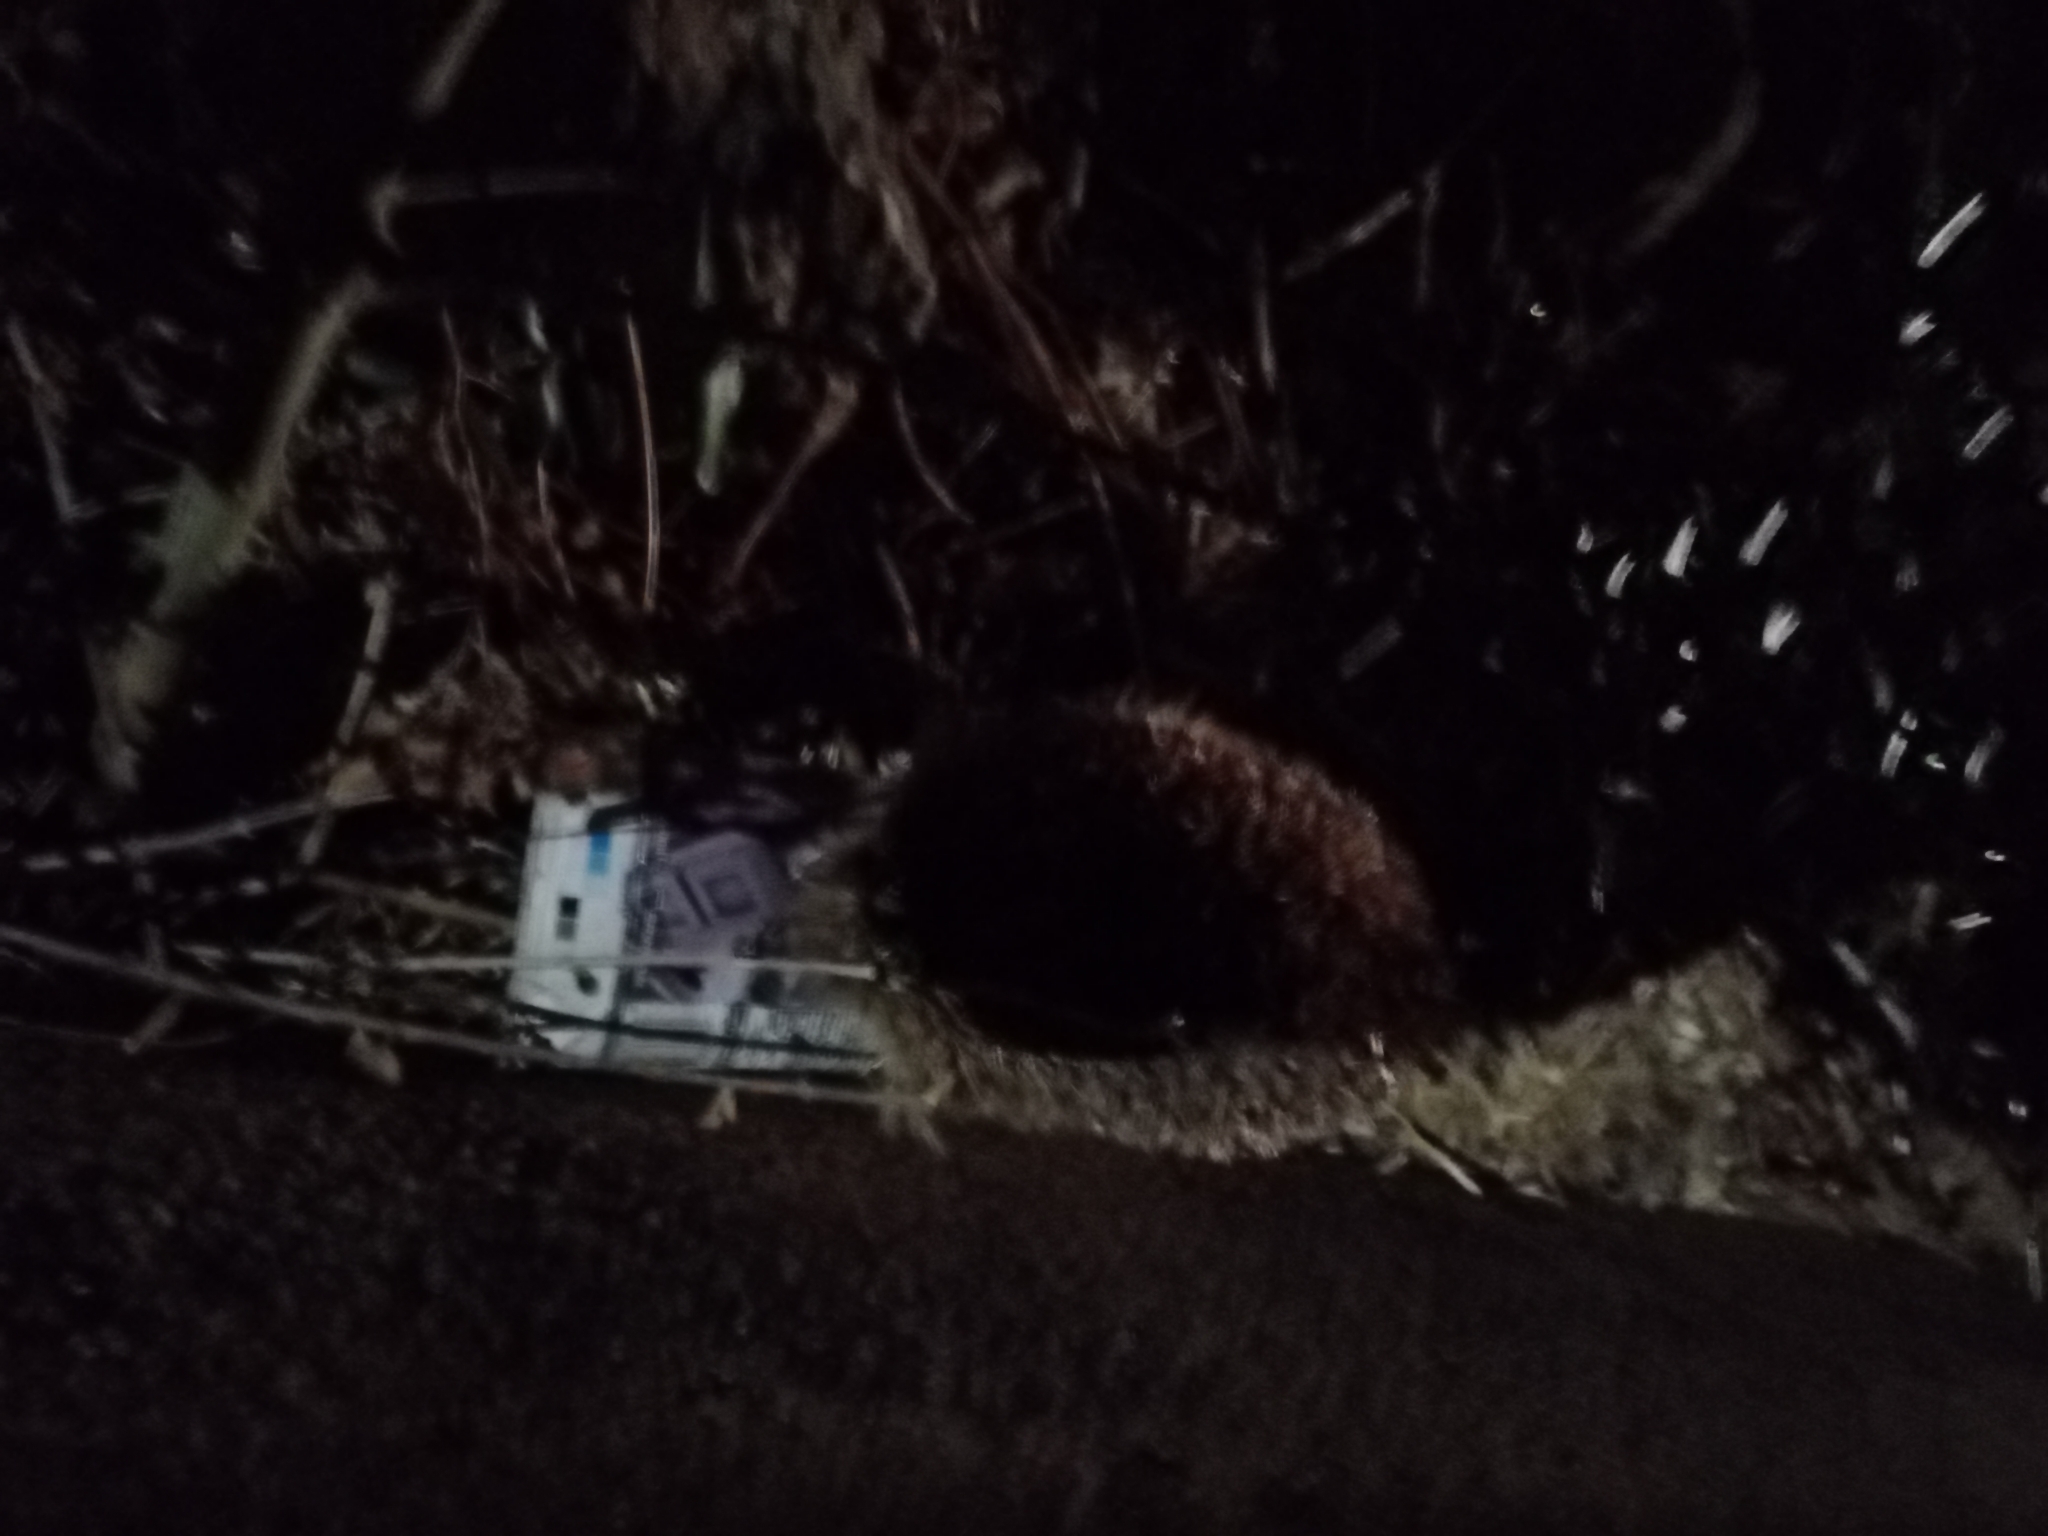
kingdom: Animalia
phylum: Chordata
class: Mammalia
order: Erinaceomorpha
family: Erinaceidae
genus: Erinaceus
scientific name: Erinaceus europaeus
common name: West european hedgehog
